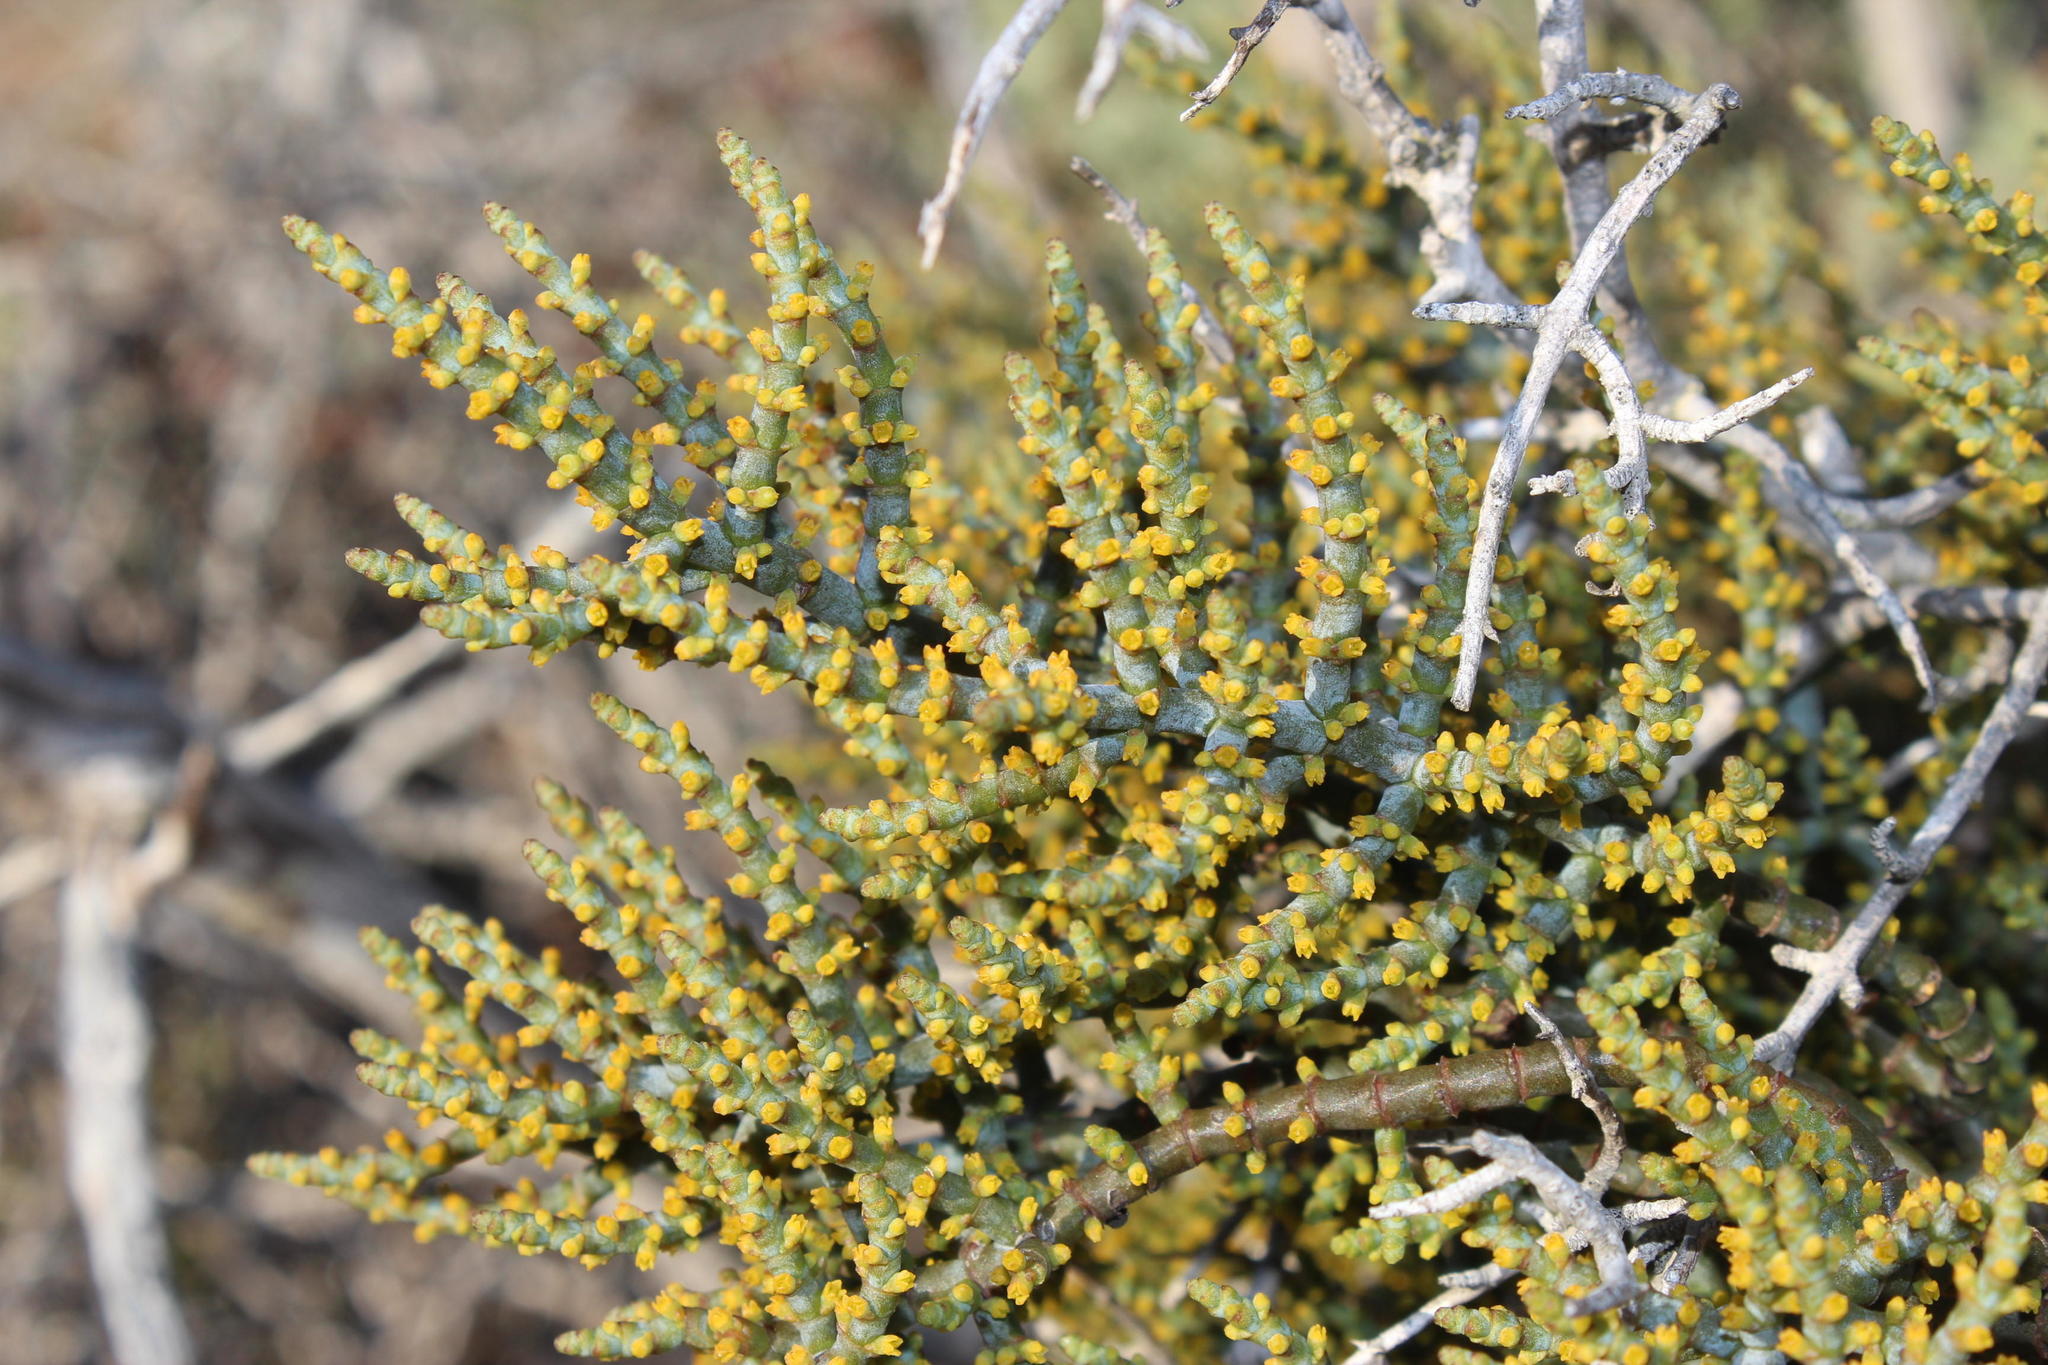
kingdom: Plantae
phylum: Tracheophyta
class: Magnoliopsida
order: Santalales
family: Viscaceae
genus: Viscum
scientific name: Viscum capense
